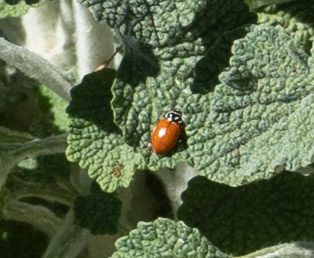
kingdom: Animalia
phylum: Arthropoda
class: Insecta
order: Coleoptera
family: Coccinellidae
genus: Hippodamia
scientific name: Hippodamia convergens
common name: Convergent lady beetle
